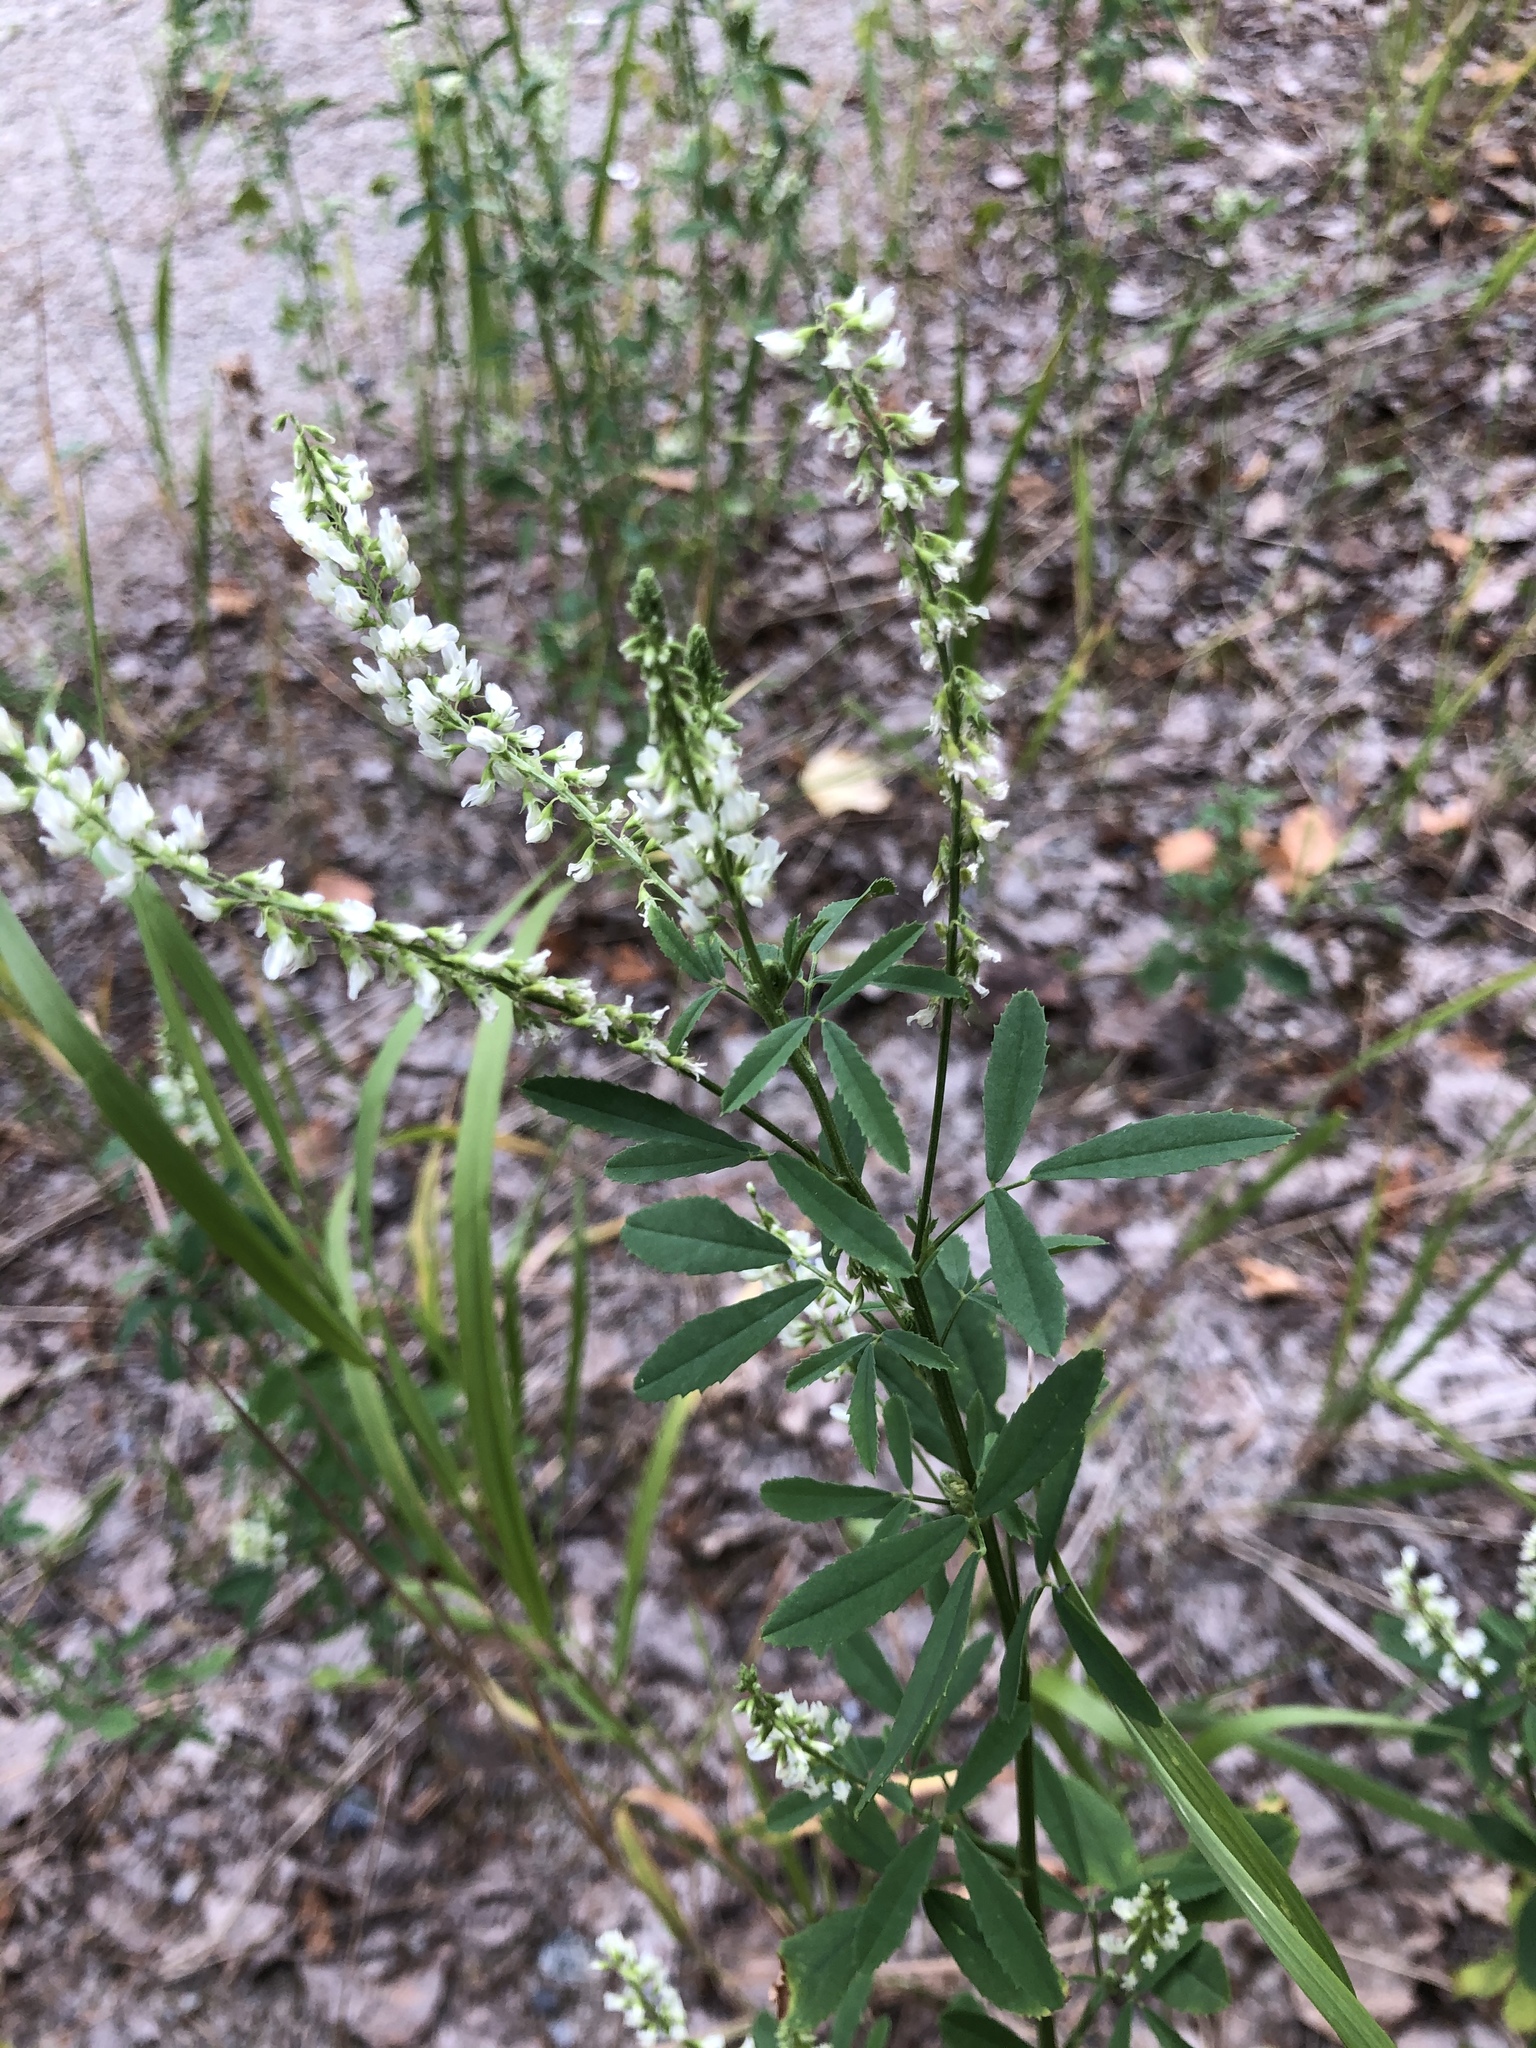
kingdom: Plantae
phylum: Tracheophyta
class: Magnoliopsida
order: Fabales
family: Fabaceae
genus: Melilotus
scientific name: Melilotus albus
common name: White melilot
